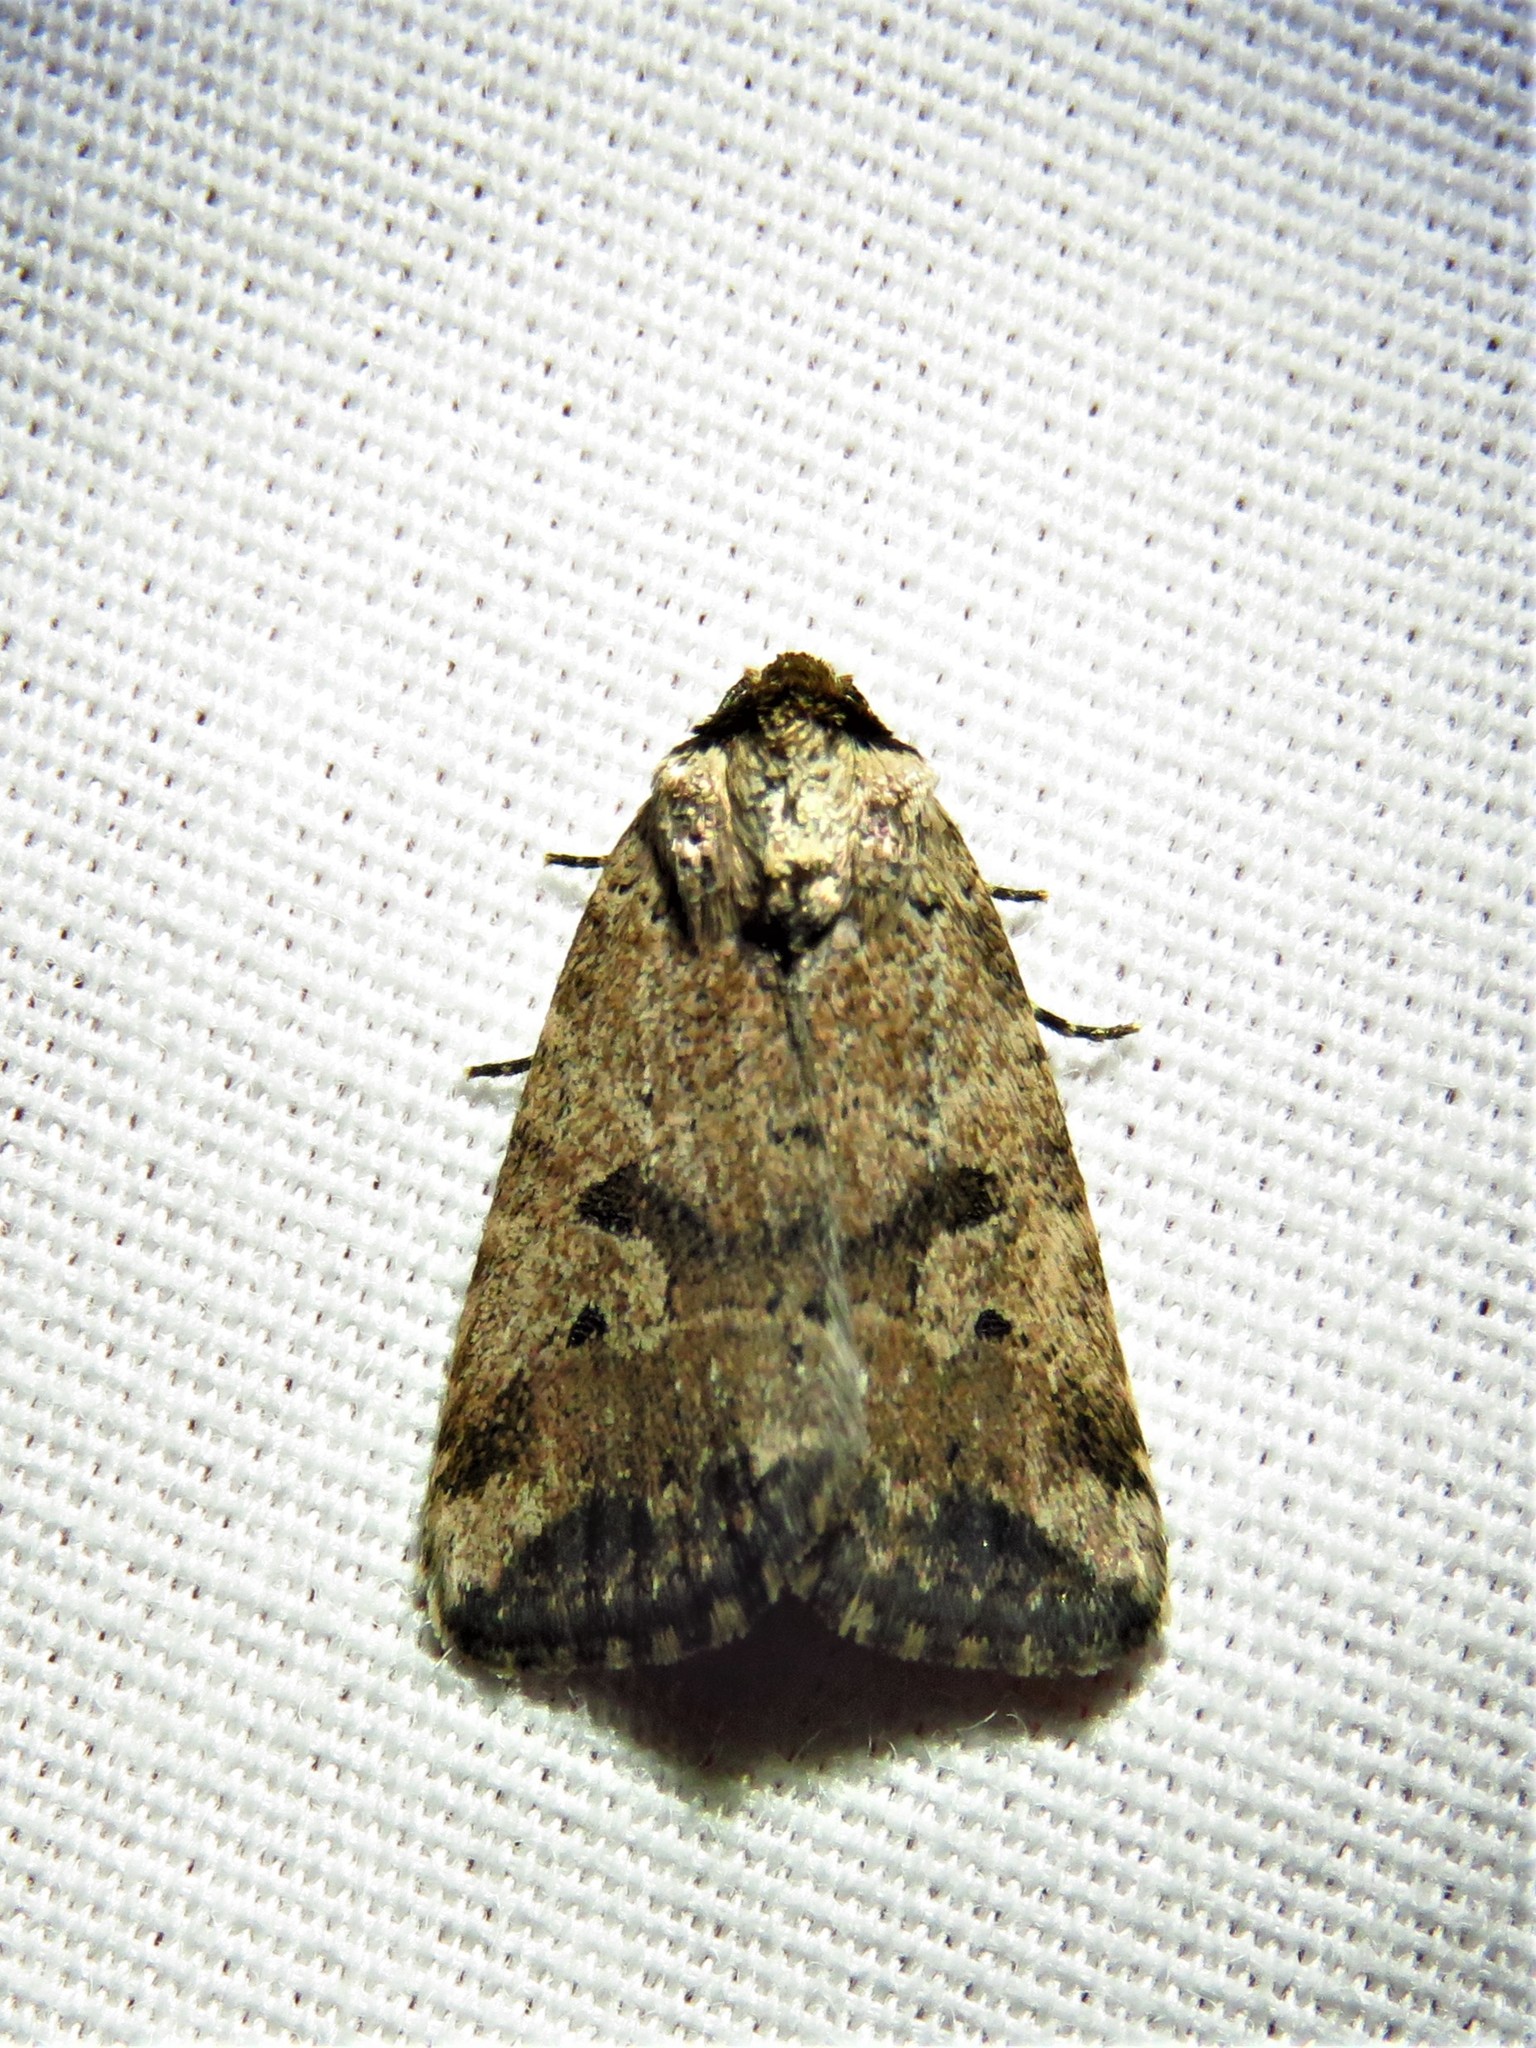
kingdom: Animalia
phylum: Arthropoda
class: Insecta
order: Lepidoptera
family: Noctuidae
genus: Elaphria
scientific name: Elaphria festivoides
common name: Festive midget
